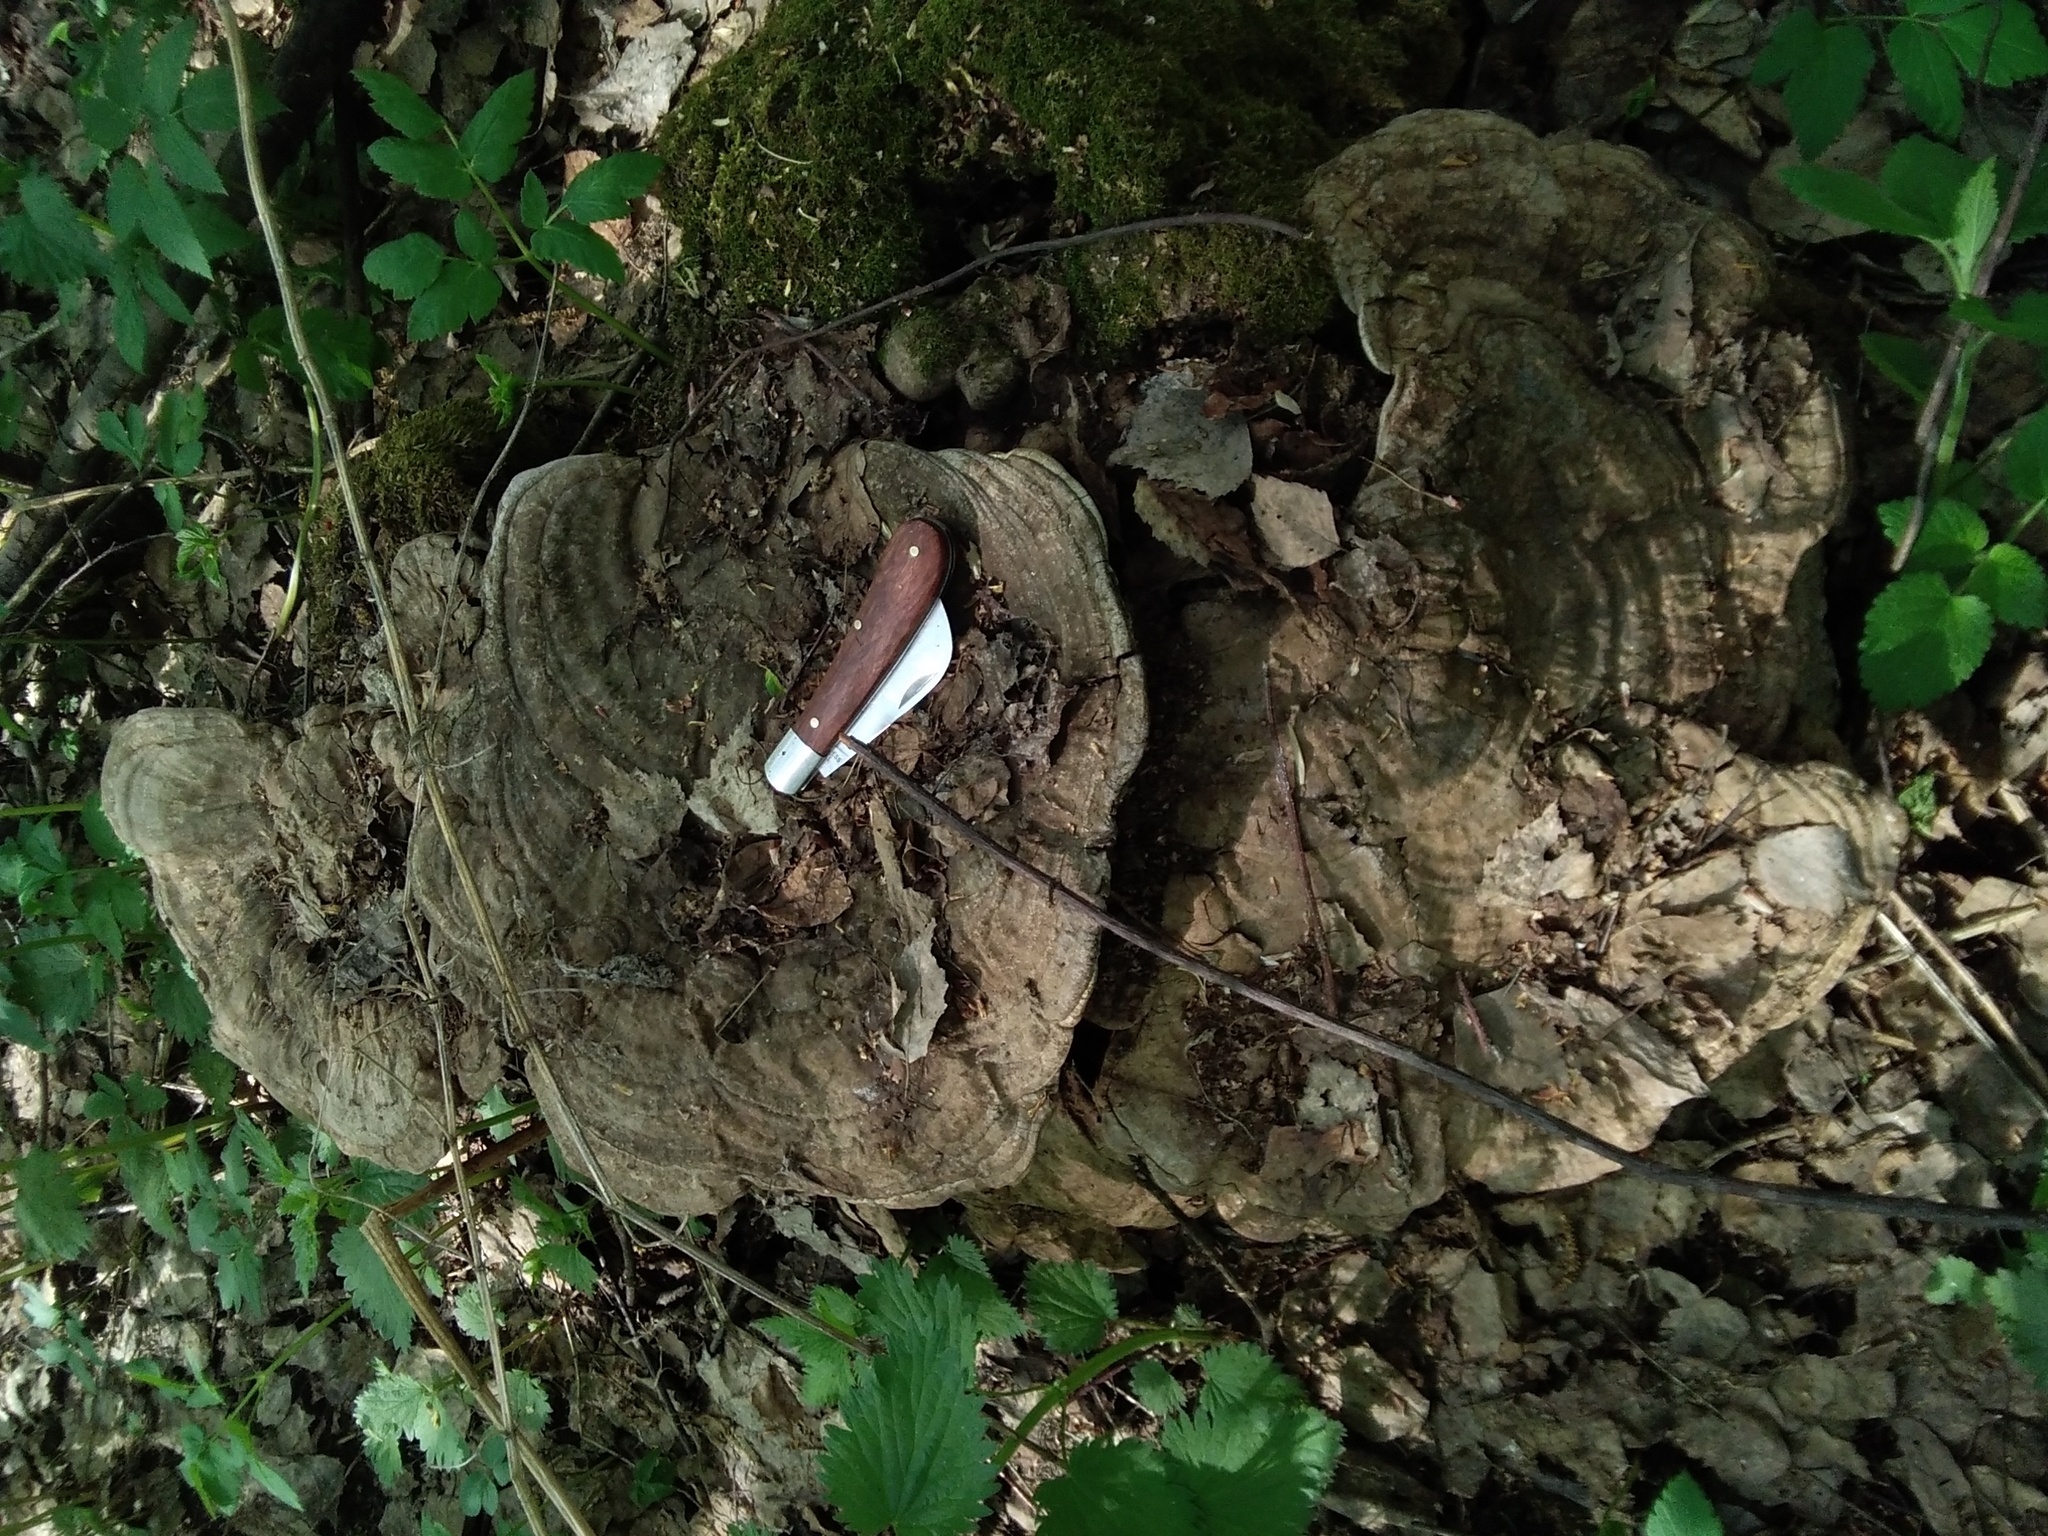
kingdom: Fungi
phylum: Basidiomycota
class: Agaricomycetes
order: Polyporales
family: Polyporaceae
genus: Ganoderma
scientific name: Ganoderma applanatum
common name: Artist's bracket
